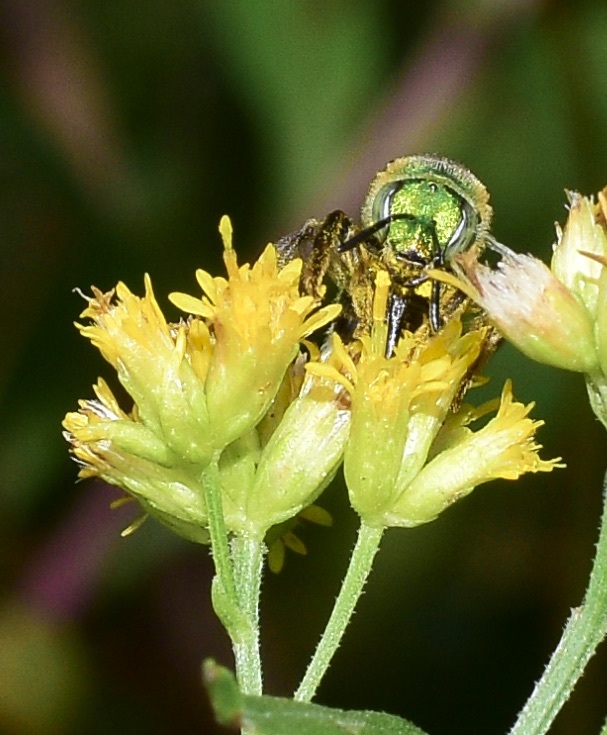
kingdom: Animalia
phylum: Arthropoda
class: Insecta
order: Hymenoptera
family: Halictidae
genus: Agapostemon
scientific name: Agapostemon sericeus
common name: Silky striped sweat bee
